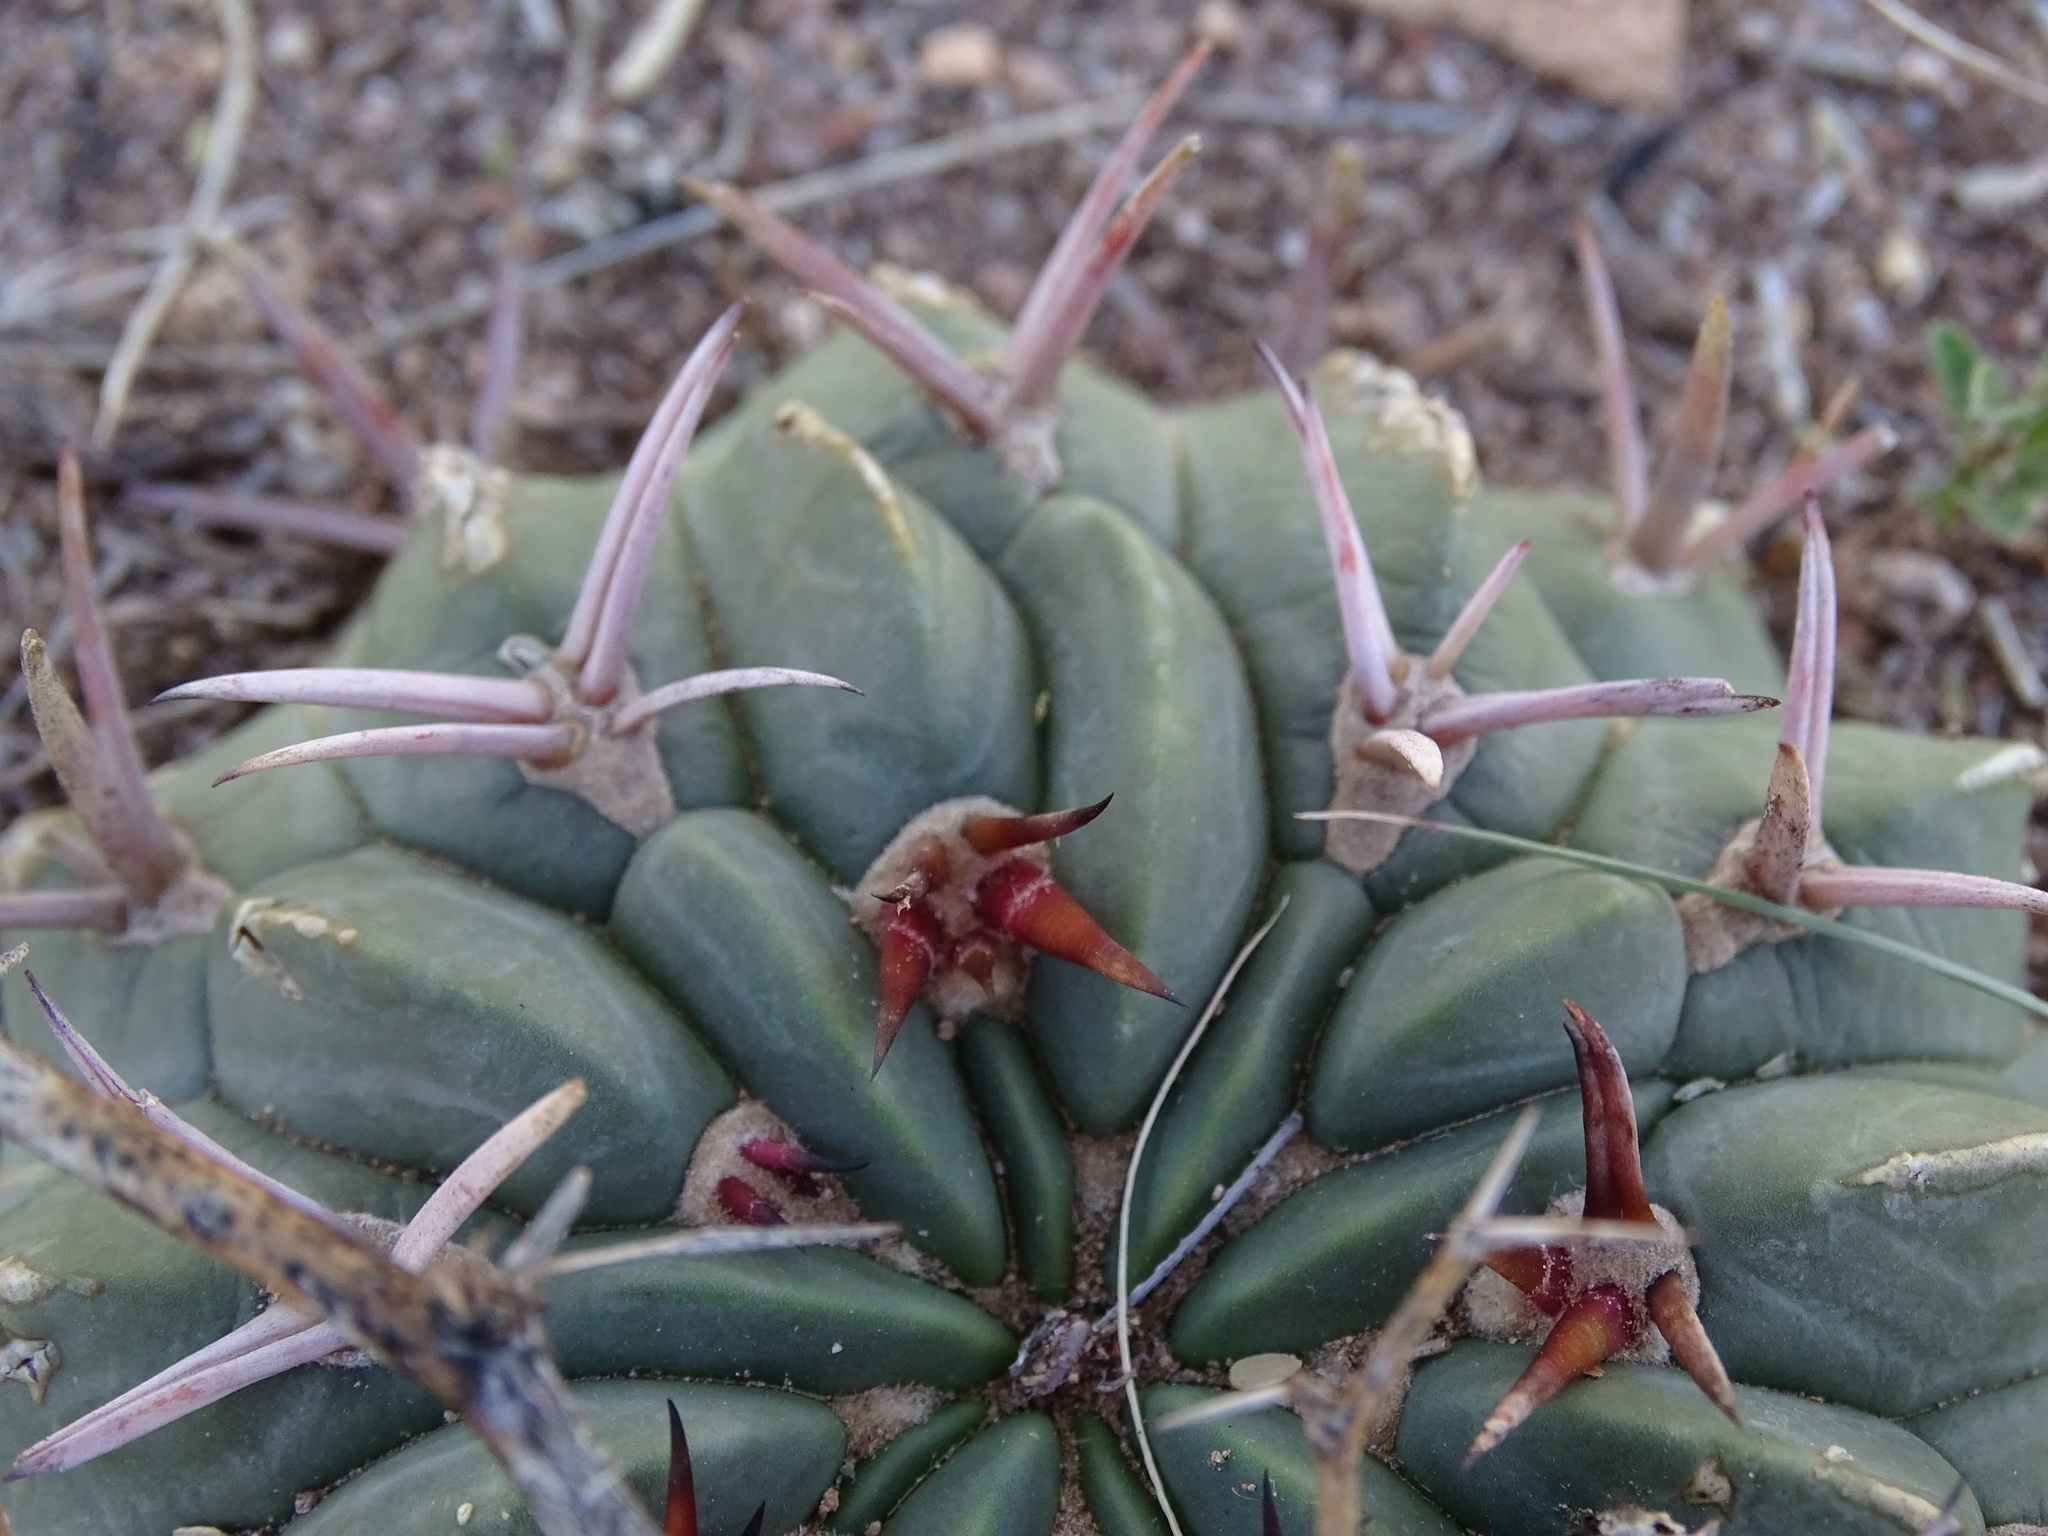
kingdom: Plantae
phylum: Tracheophyta
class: Magnoliopsida
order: Caryophyllales
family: Cactaceae
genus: Stenocactus
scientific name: Stenocactus coptonogonus
